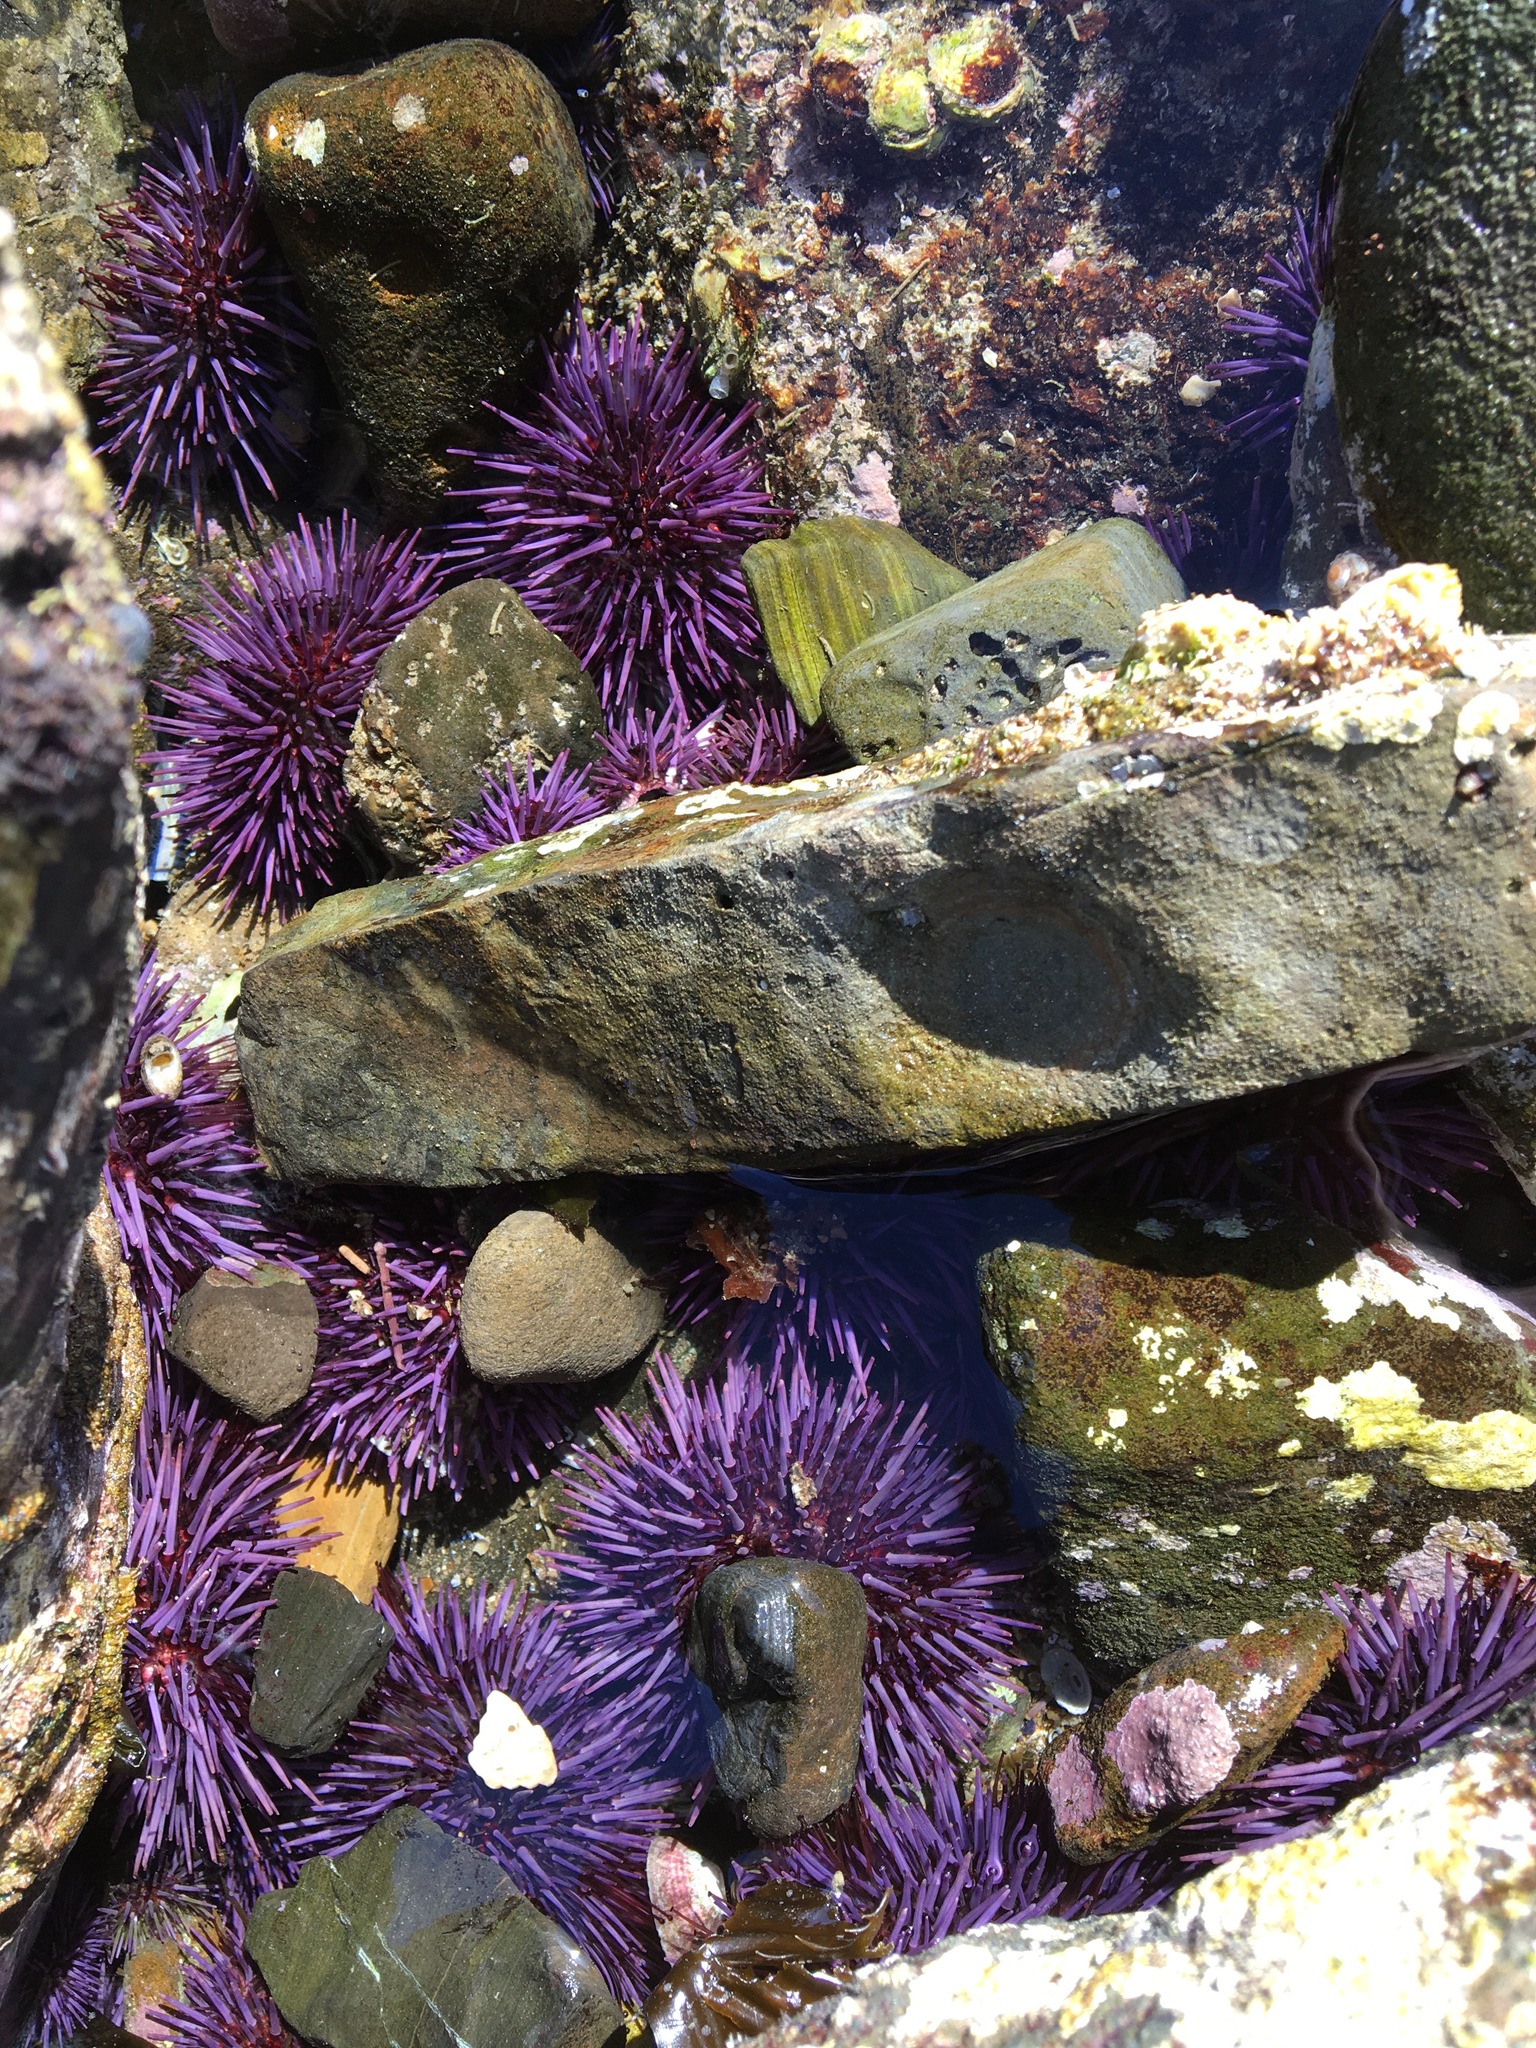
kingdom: Animalia
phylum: Echinodermata
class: Echinoidea
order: Camarodonta
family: Strongylocentrotidae
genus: Strongylocentrotus
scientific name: Strongylocentrotus purpuratus
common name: Purple sea urchin
